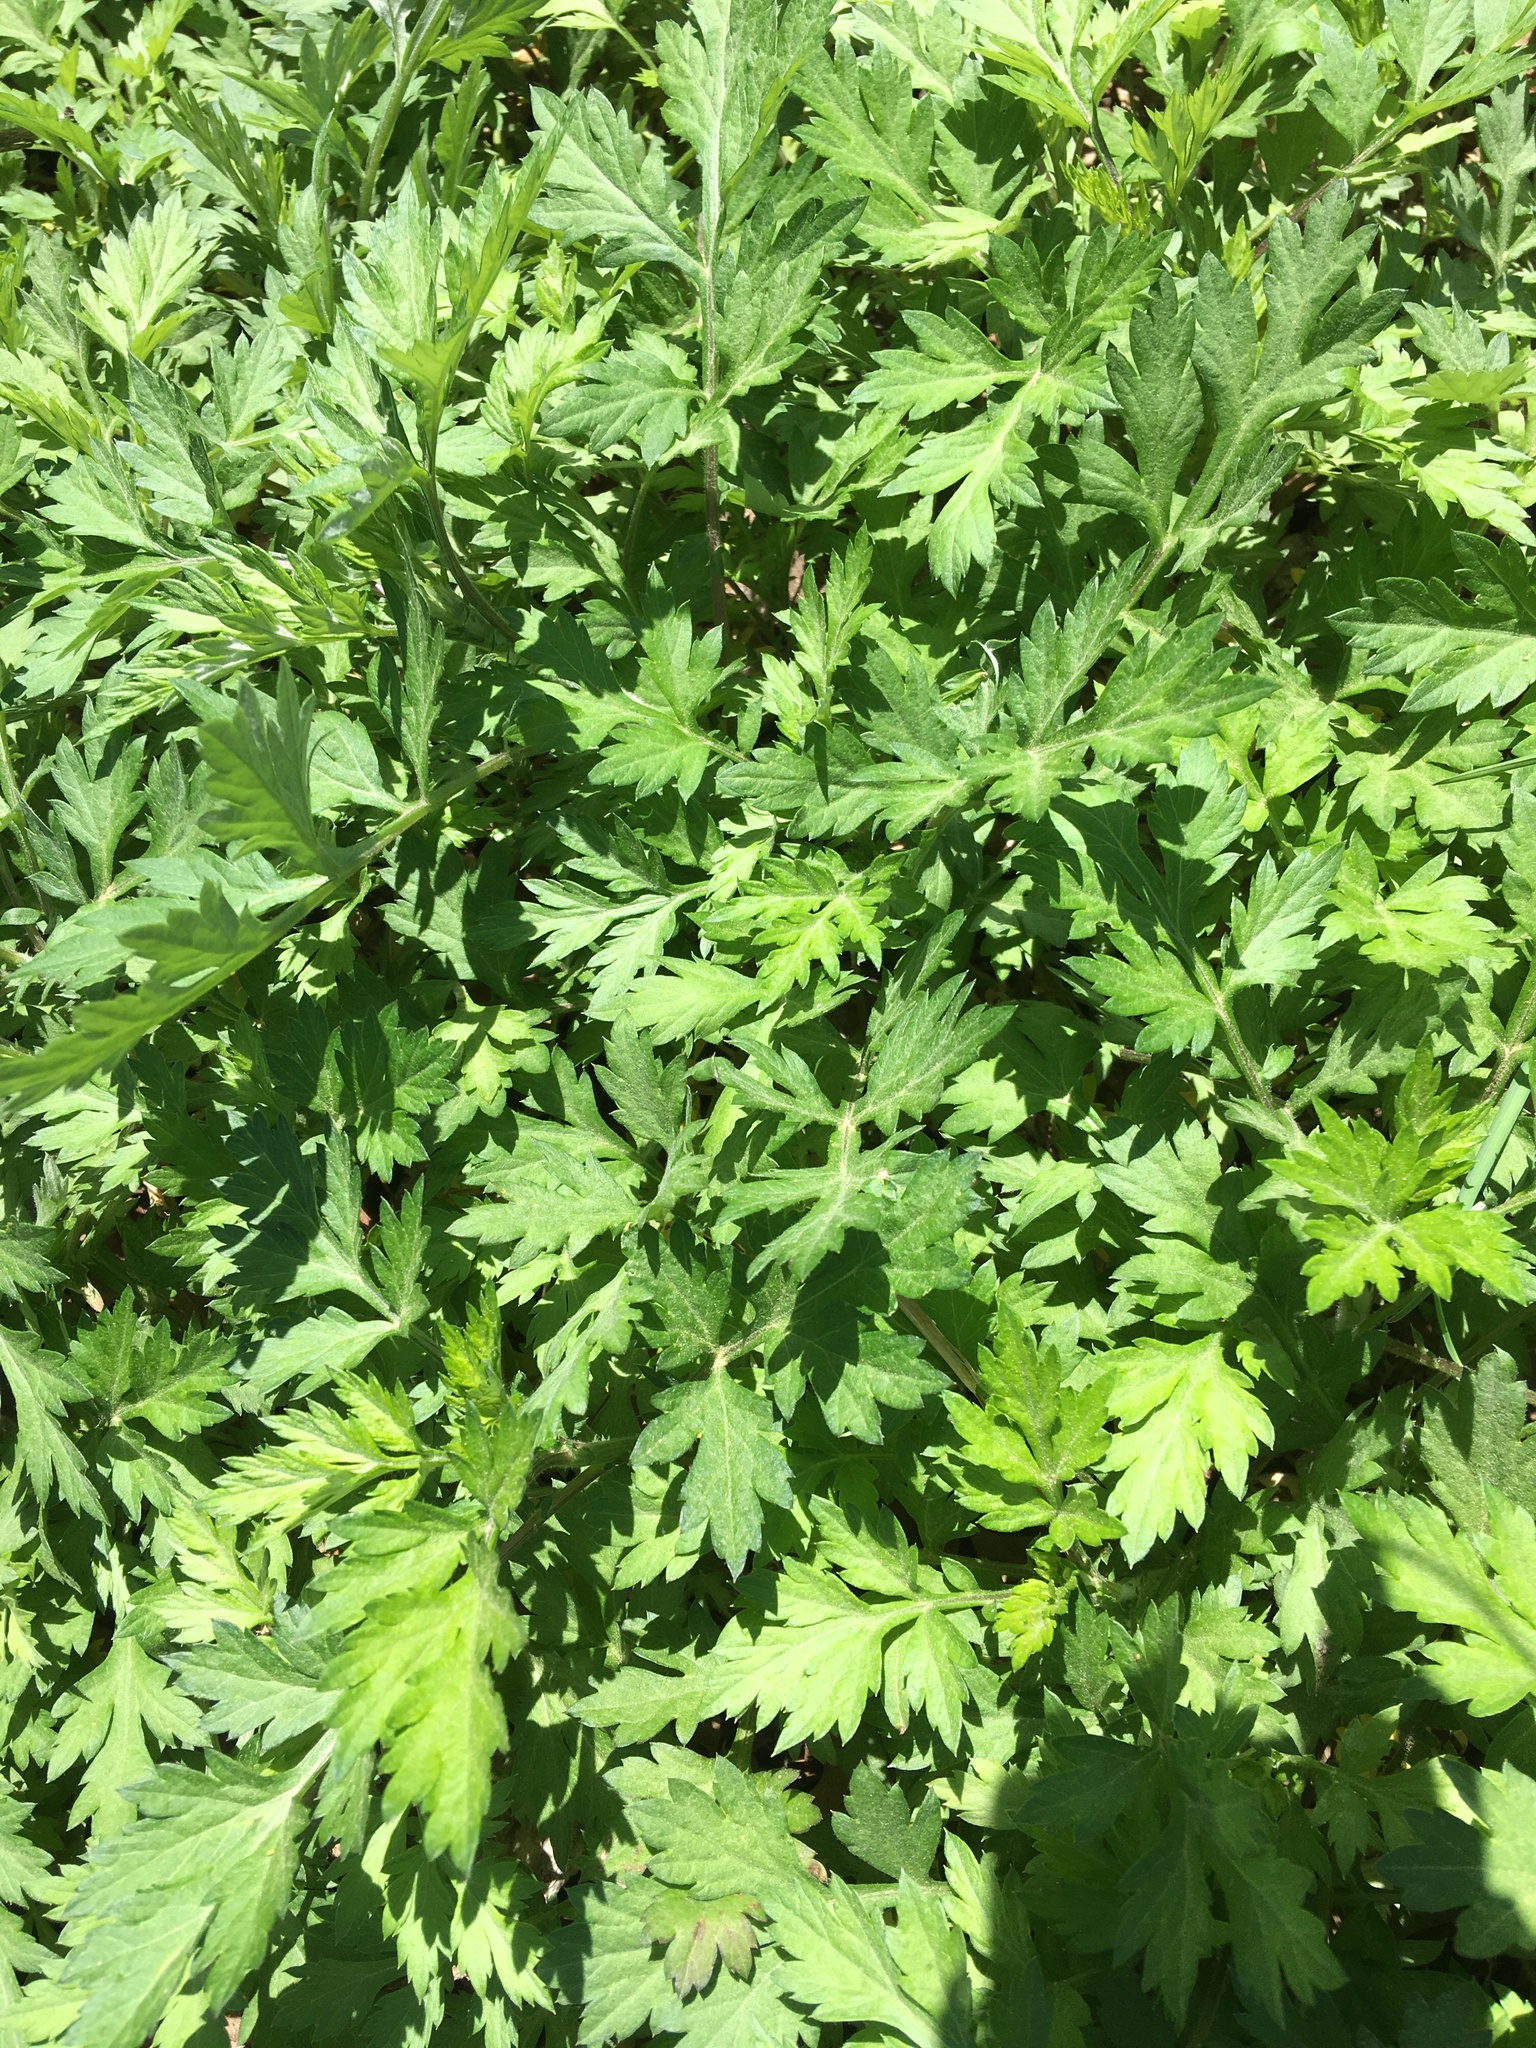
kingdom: Plantae
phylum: Tracheophyta
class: Magnoliopsida
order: Asterales
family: Asteraceae
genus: Artemisia
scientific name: Artemisia vulgaris
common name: Mugwort
